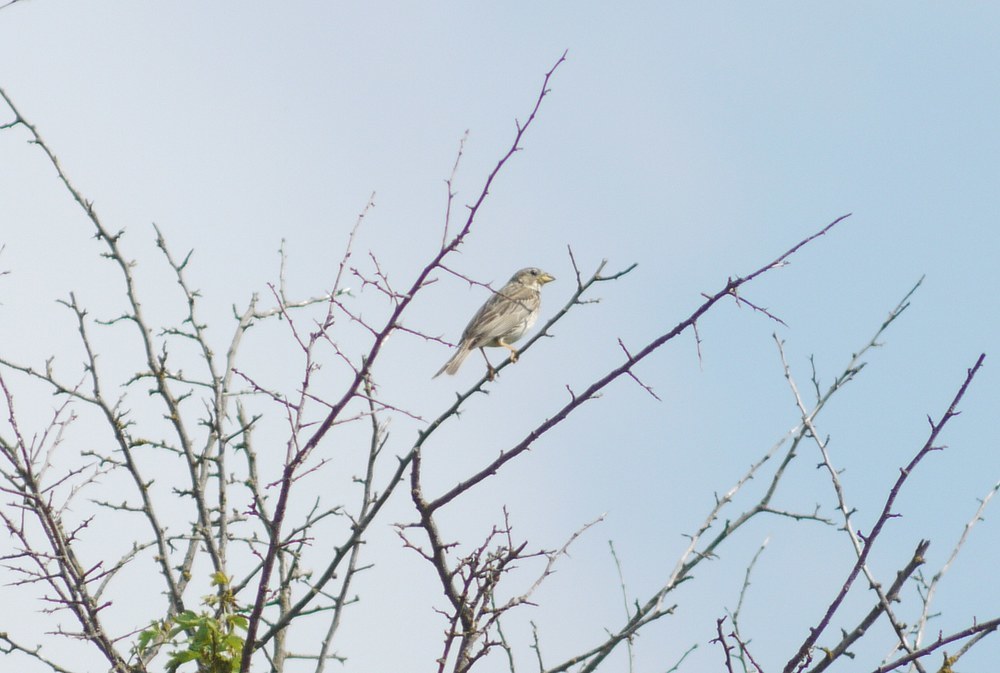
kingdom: Animalia
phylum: Chordata
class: Aves
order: Passeriformes
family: Emberizidae
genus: Emberiza
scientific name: Emberiza calandra
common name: Corn bunting
